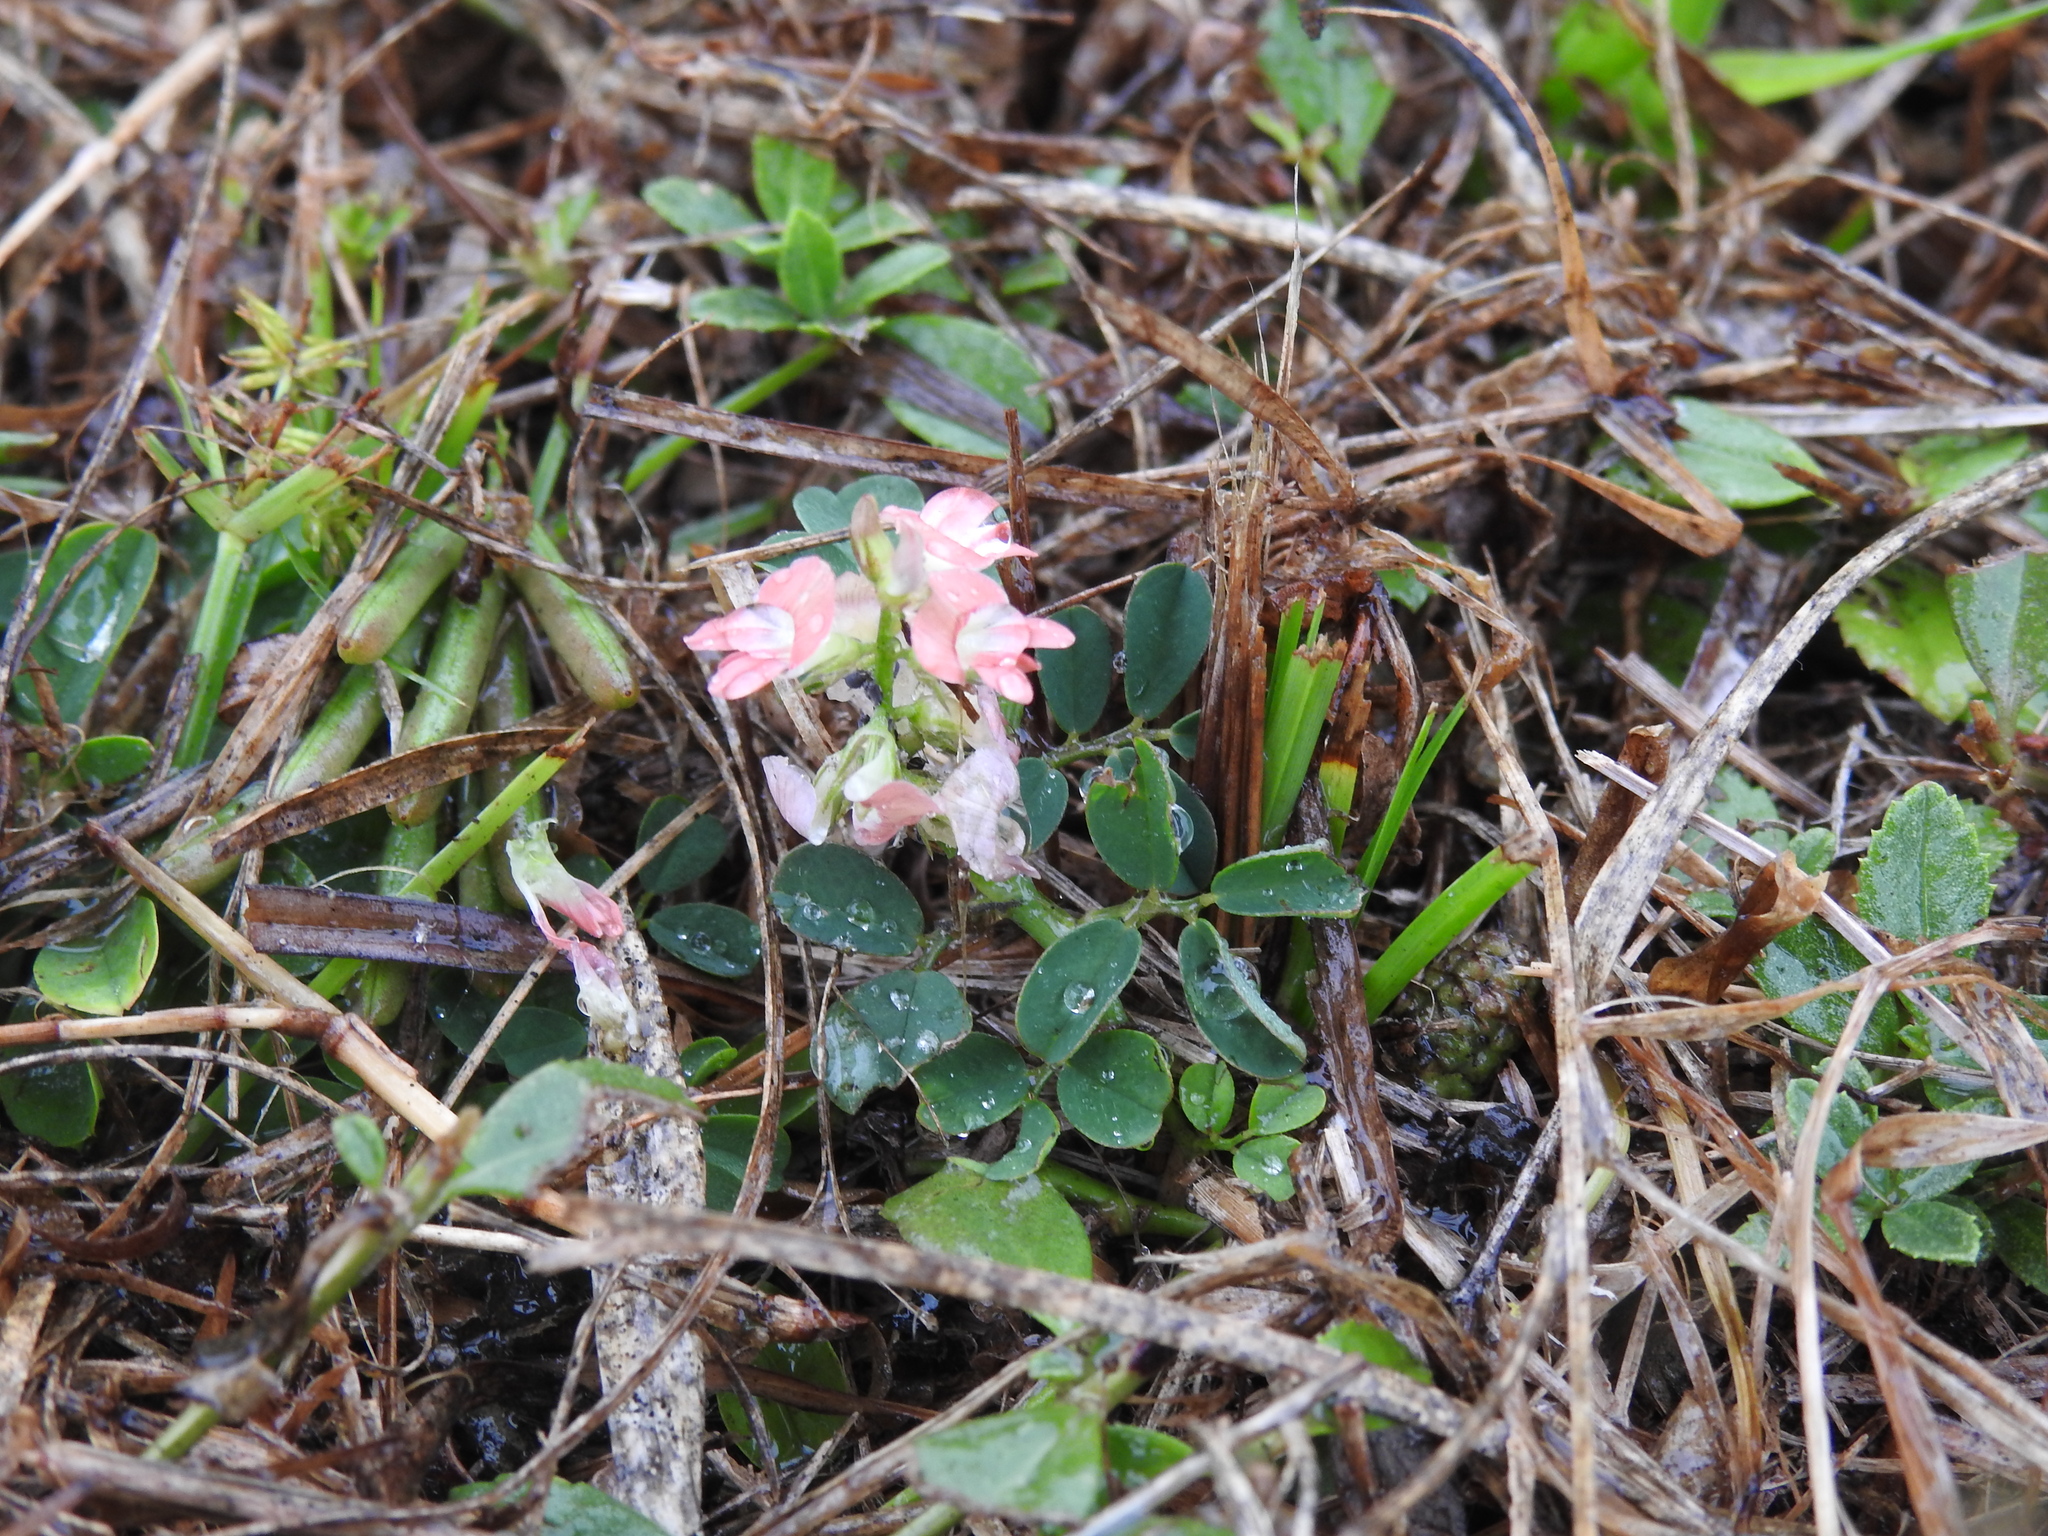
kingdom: Plantae
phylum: Tracheophyta
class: Magnoliopsida
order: Fabales
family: Fabaceae
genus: Indigofera
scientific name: Indigofera spicata
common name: Creeping indigo
